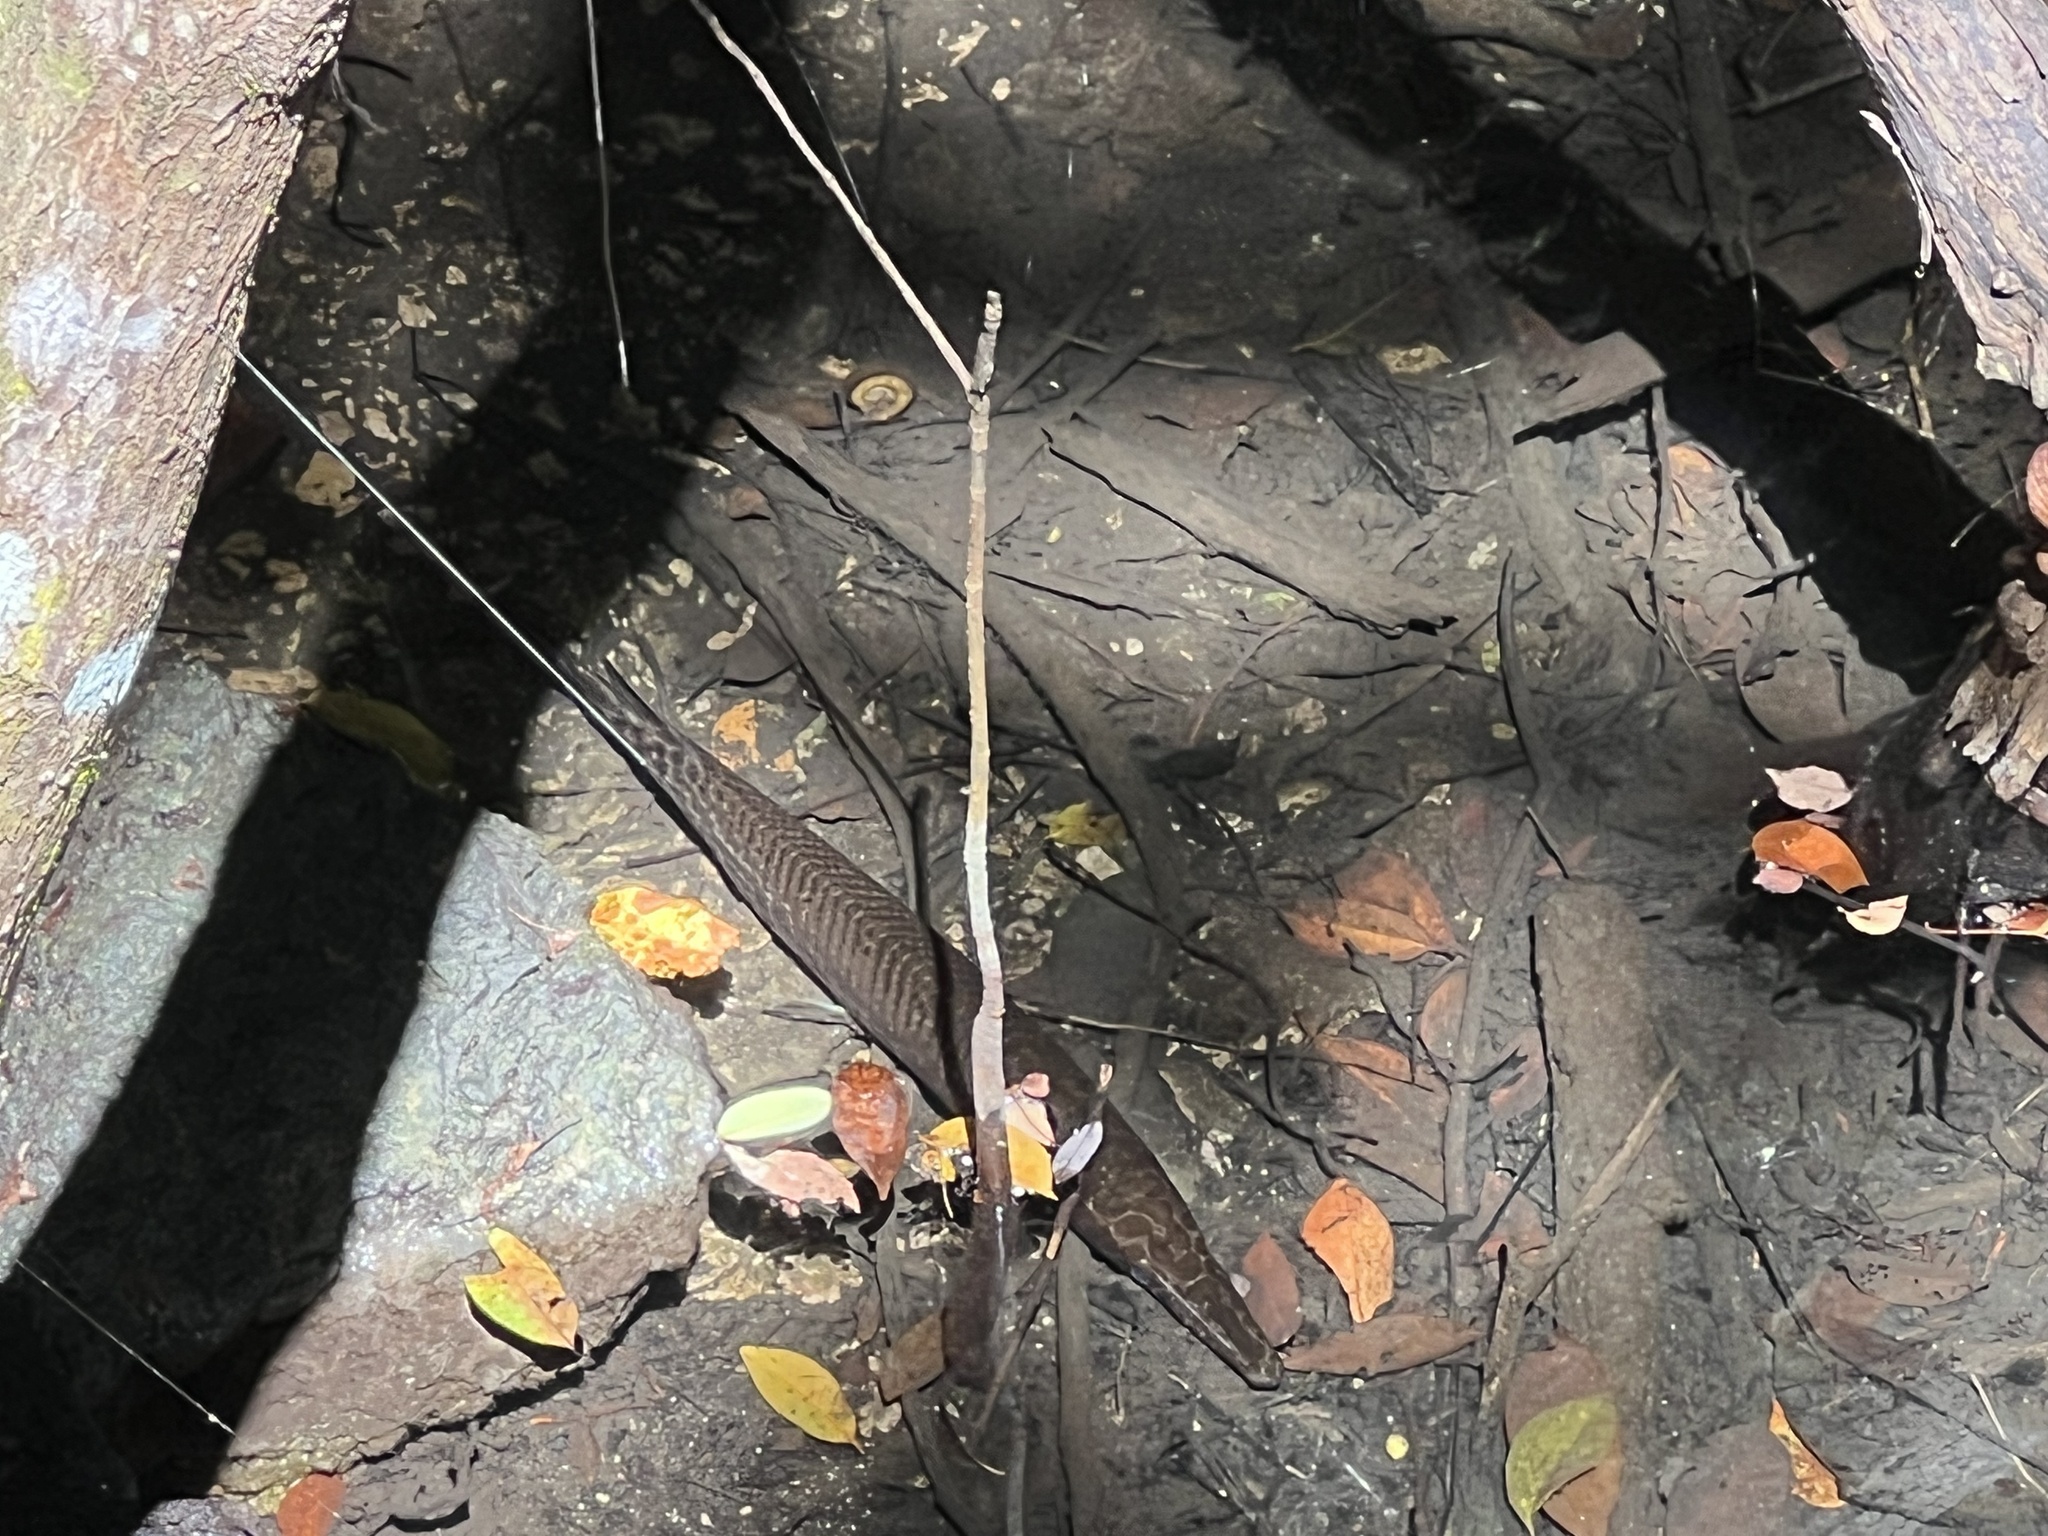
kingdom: Animalia
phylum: Chordata
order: Lepisosteiformes
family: Lepisosteidae
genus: Lepisosteus
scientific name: Lepisosteus platyrhincus
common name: Florida gar
